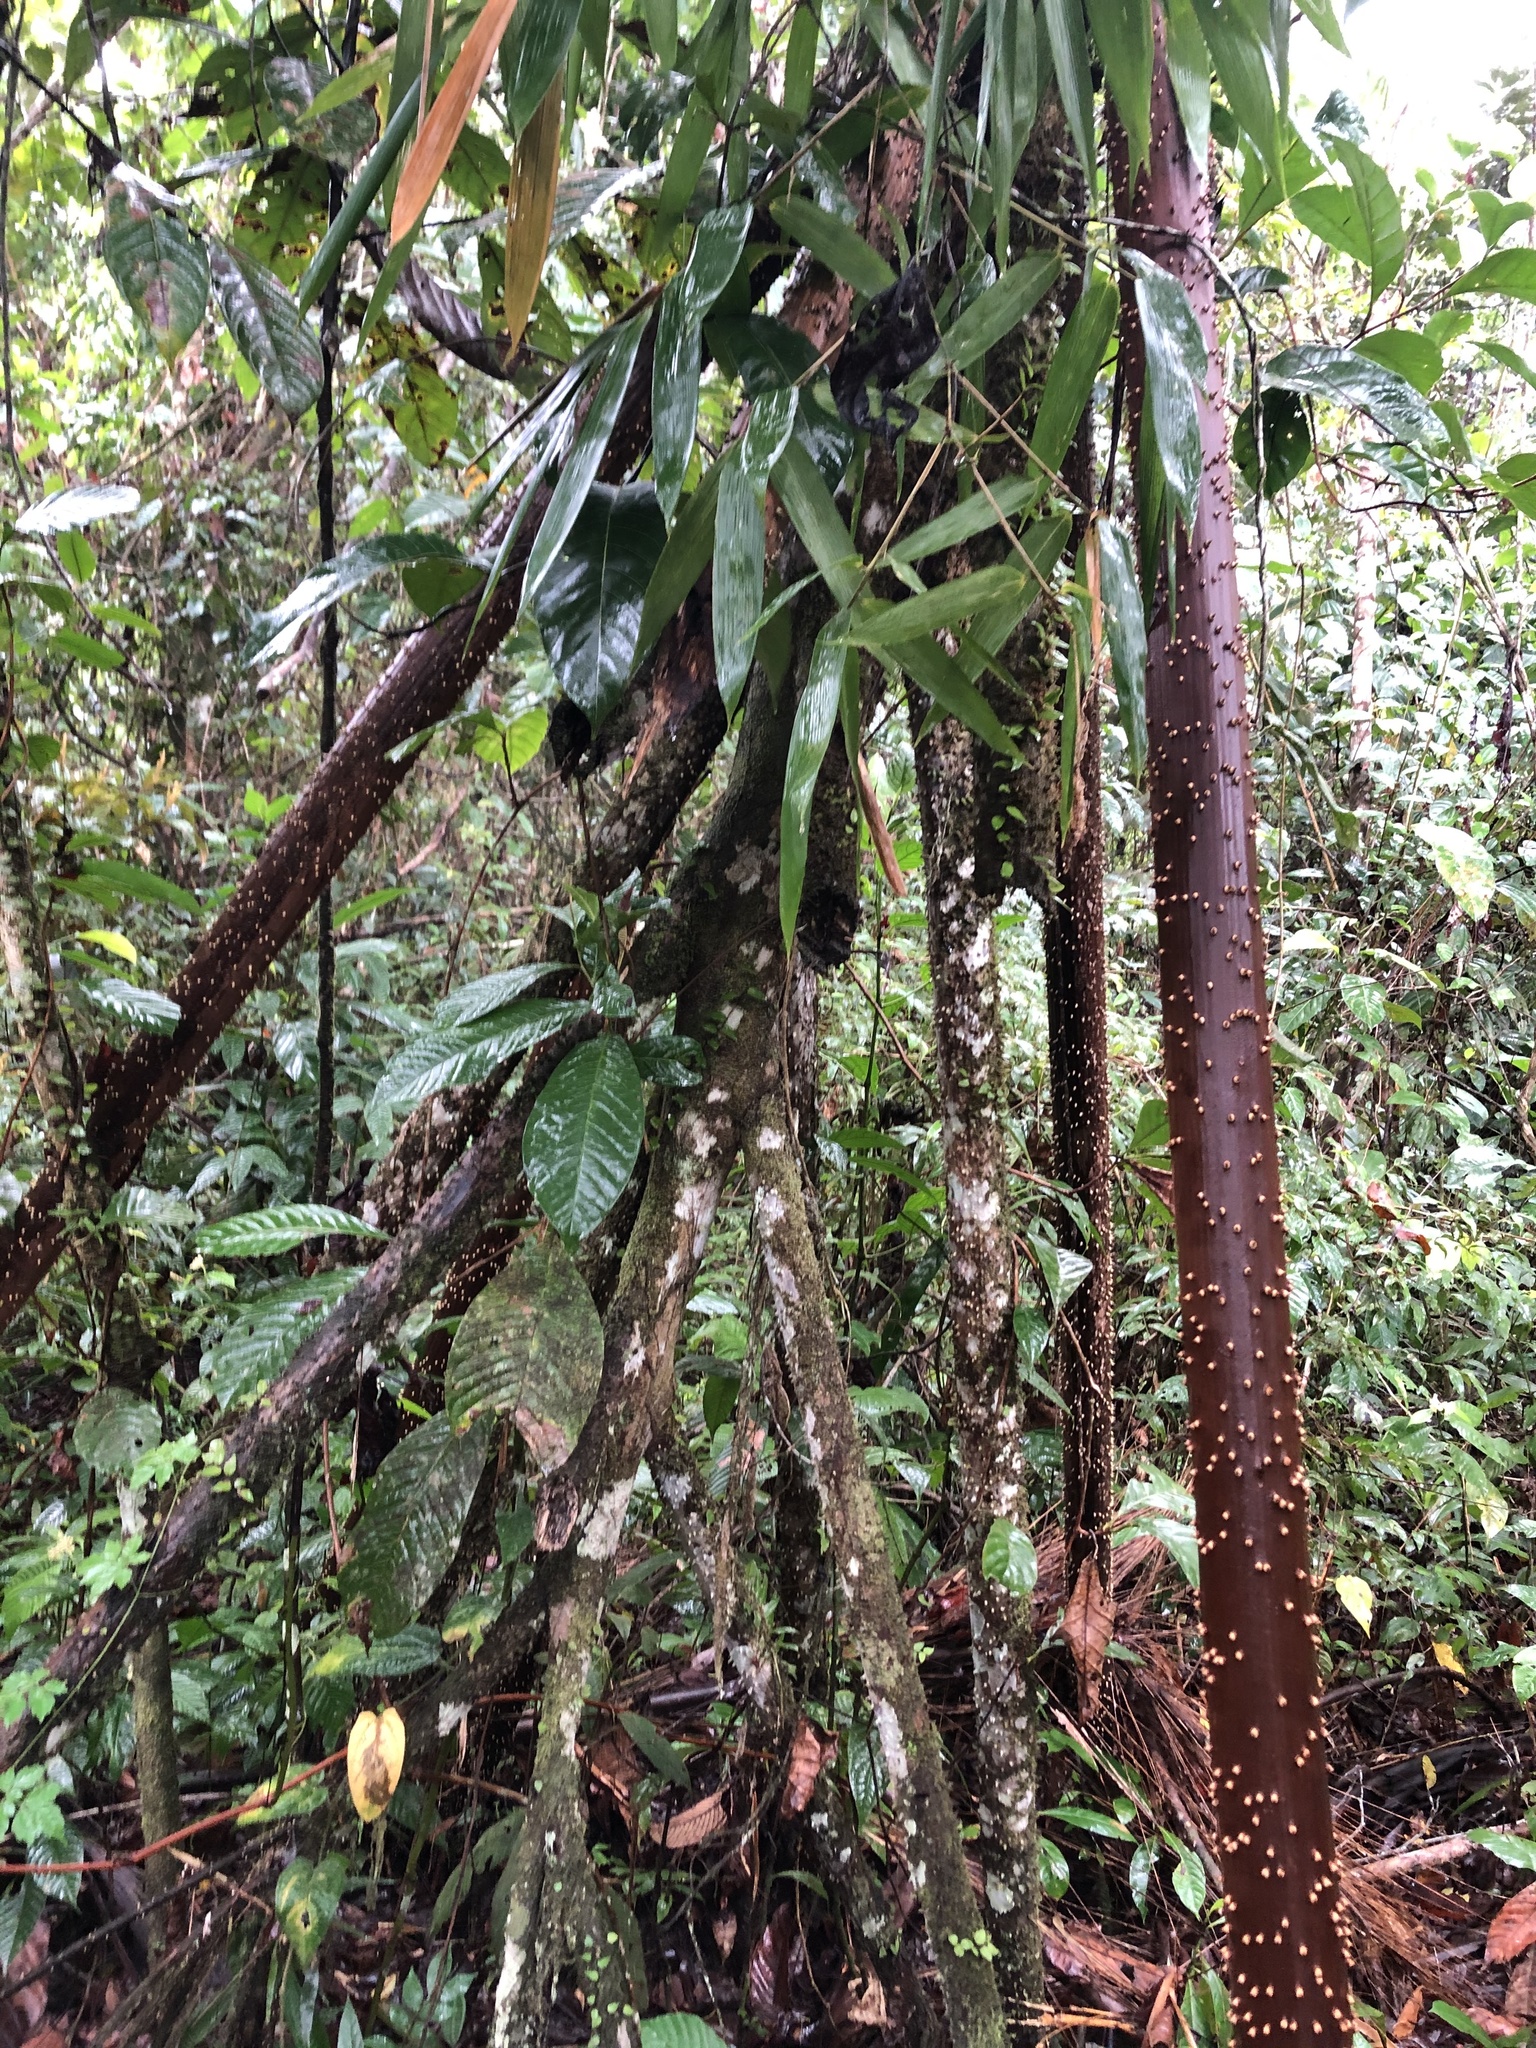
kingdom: Plantae
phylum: Tracheophyta
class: Liliopsida
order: Arecales
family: Arecaceae
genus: Socratea
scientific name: Socratea exorrhiza
